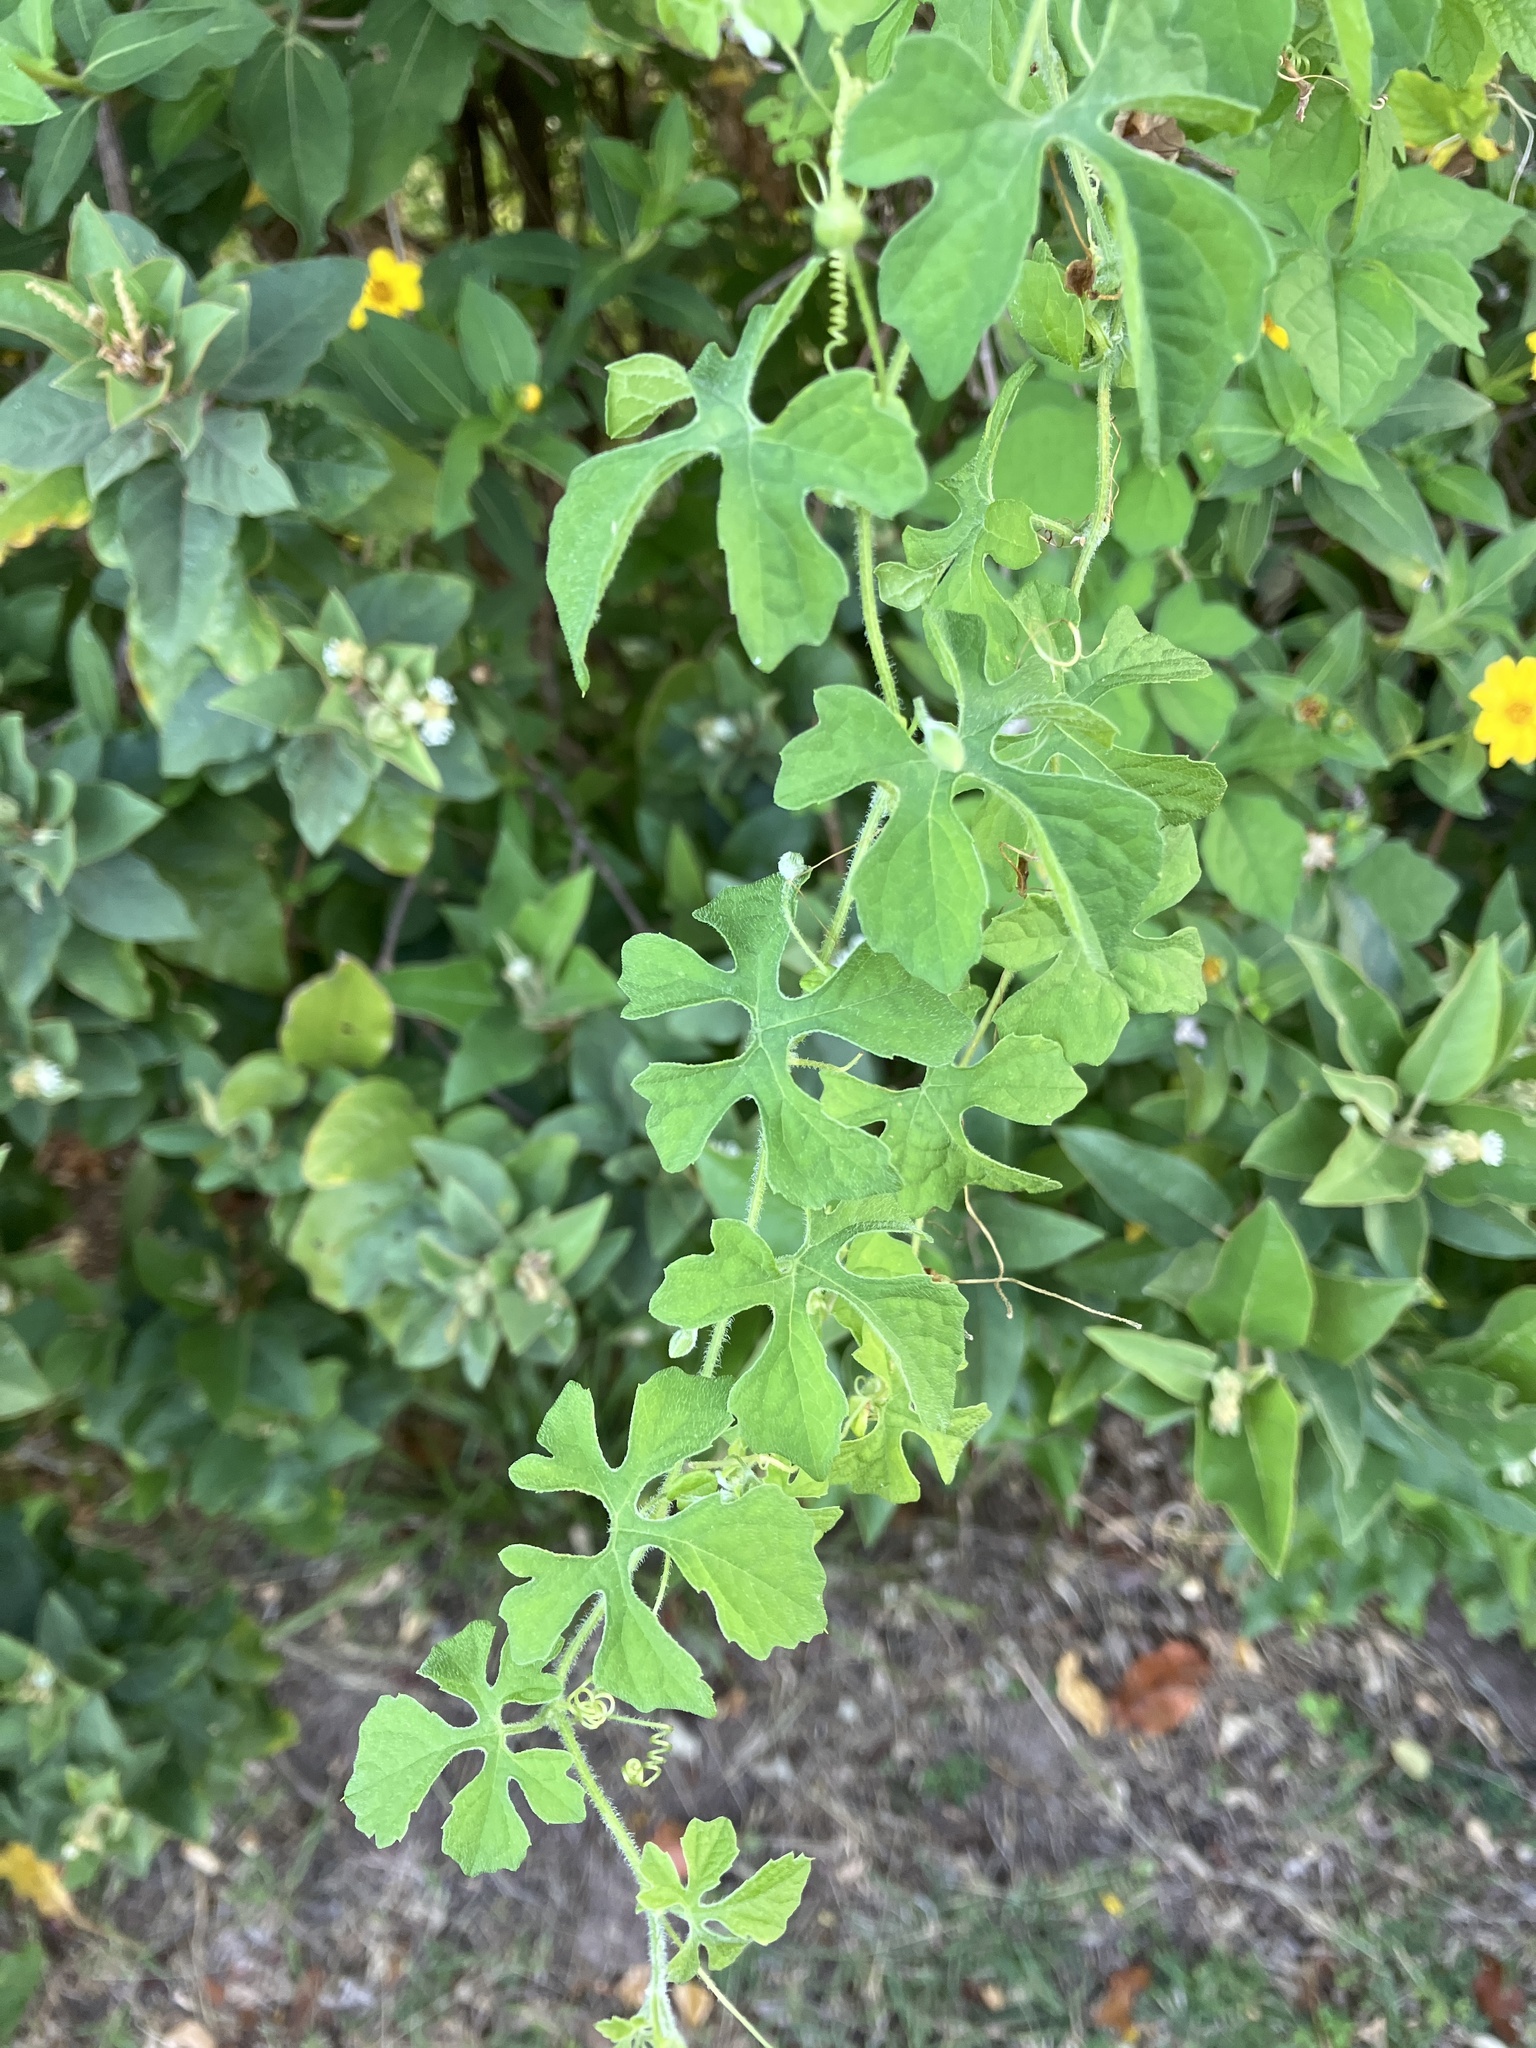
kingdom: Plantae
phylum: Tracheophyta
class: Magnoliopsida
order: Cucurbitales
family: Cucurbitaceae
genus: Momordica
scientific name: Momordica charantia
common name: Balsampear
